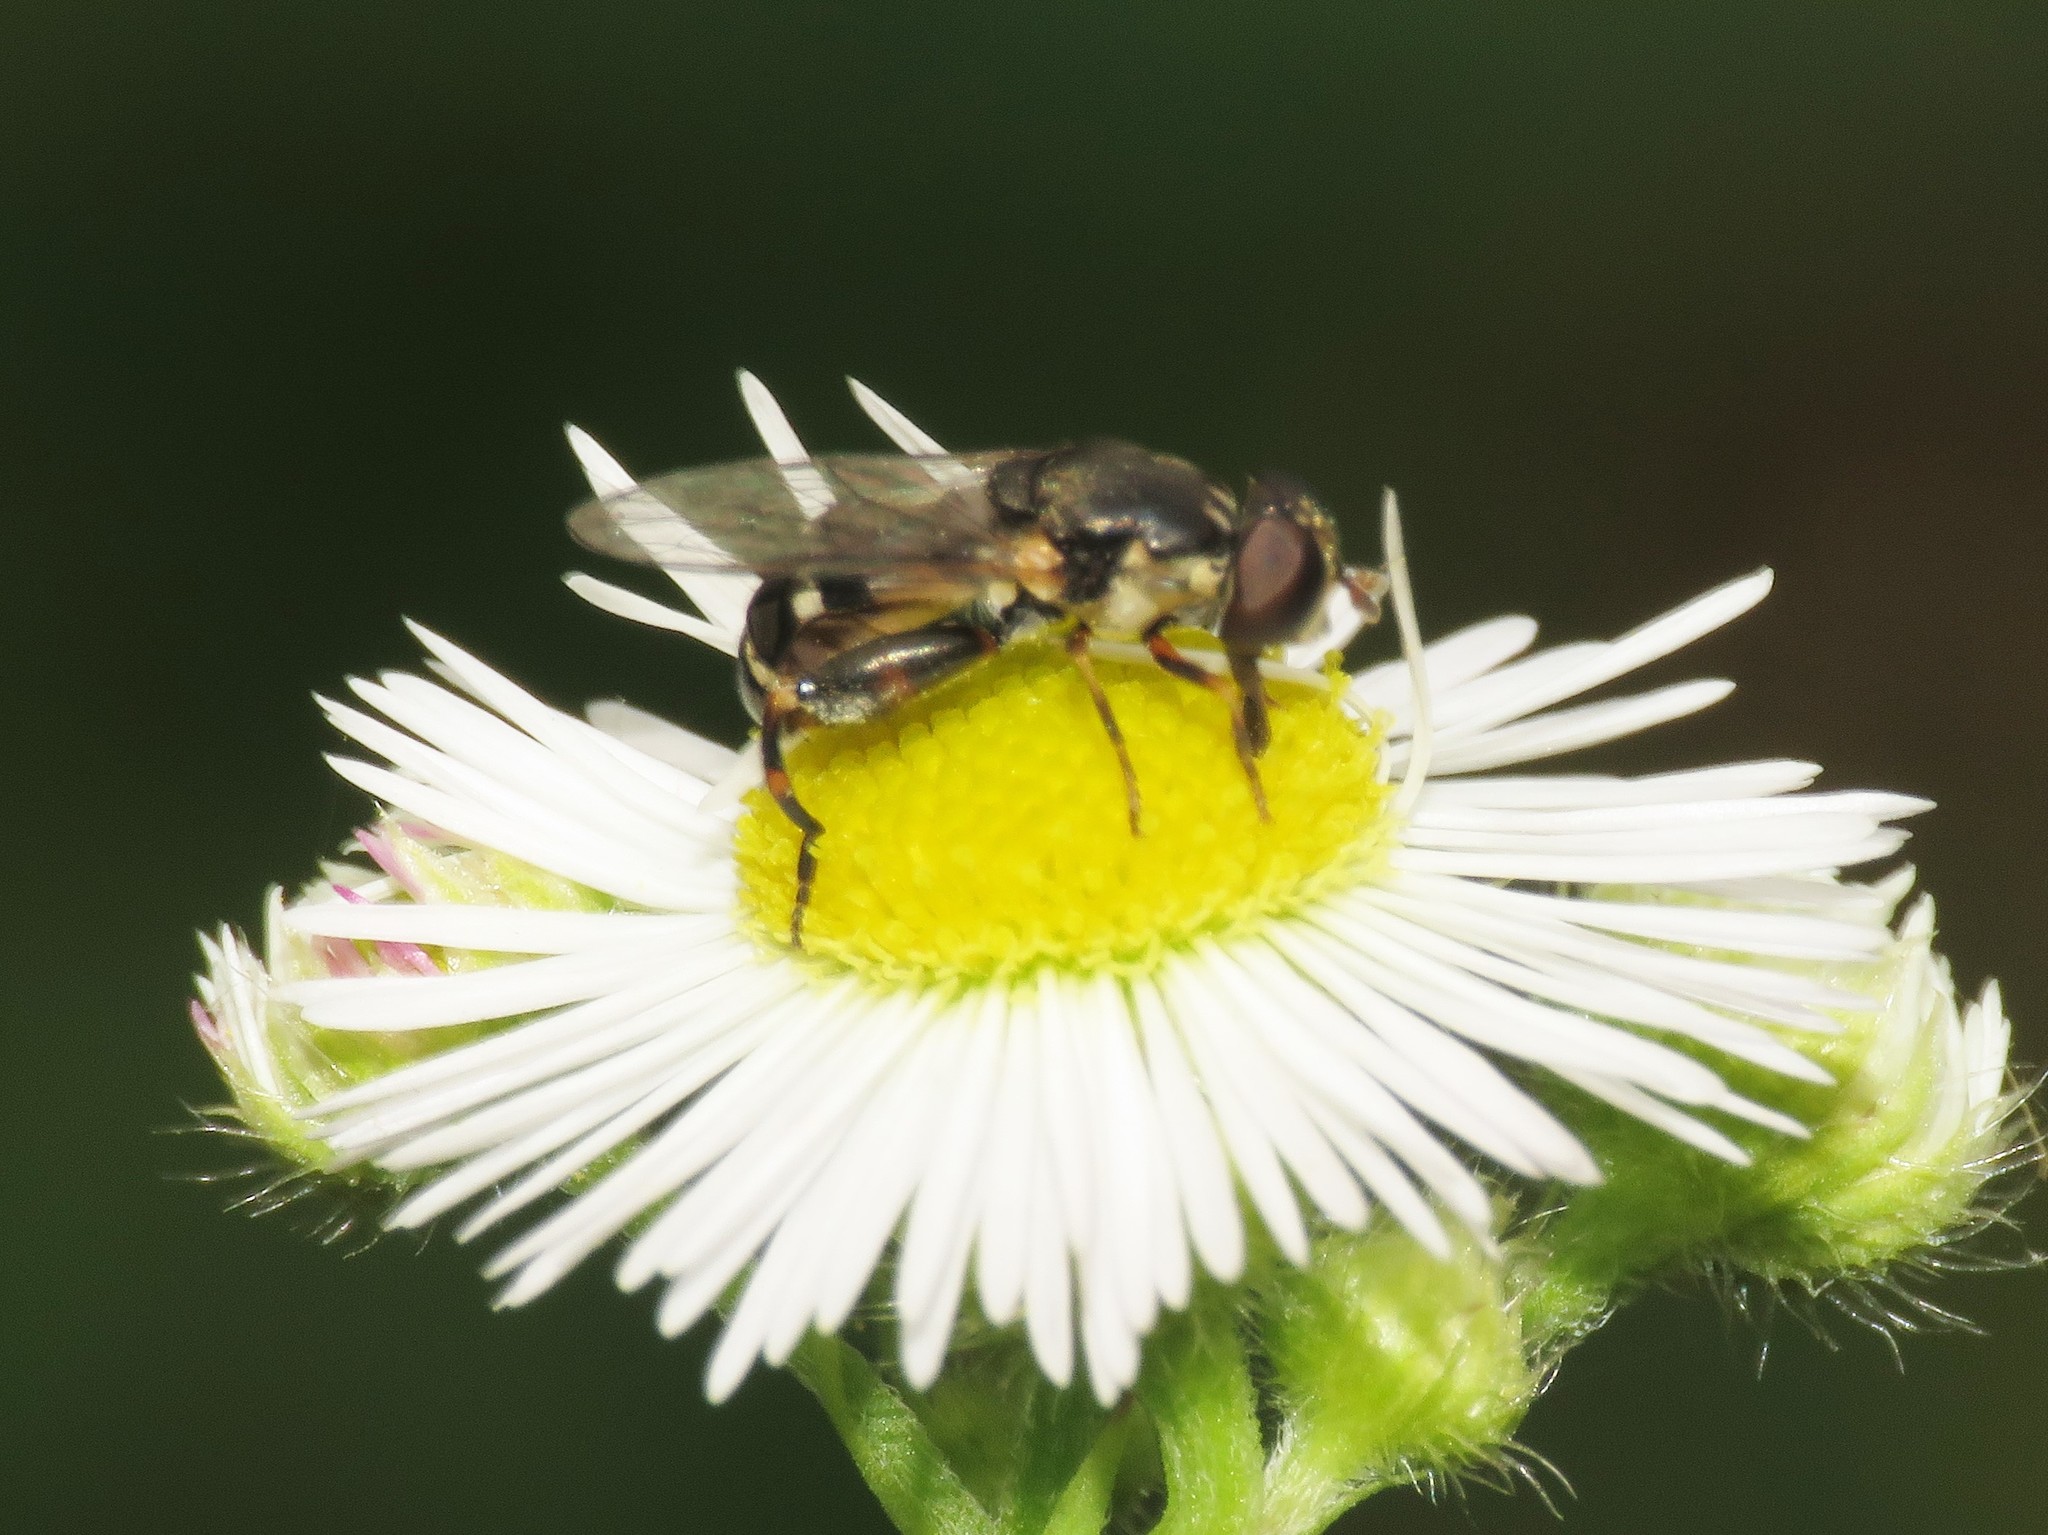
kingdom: Animalia
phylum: Arthropoda
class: Insecta
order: Diptera
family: Syrphidae
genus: Syritta
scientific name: Syritta pipiens
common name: Hover fly
